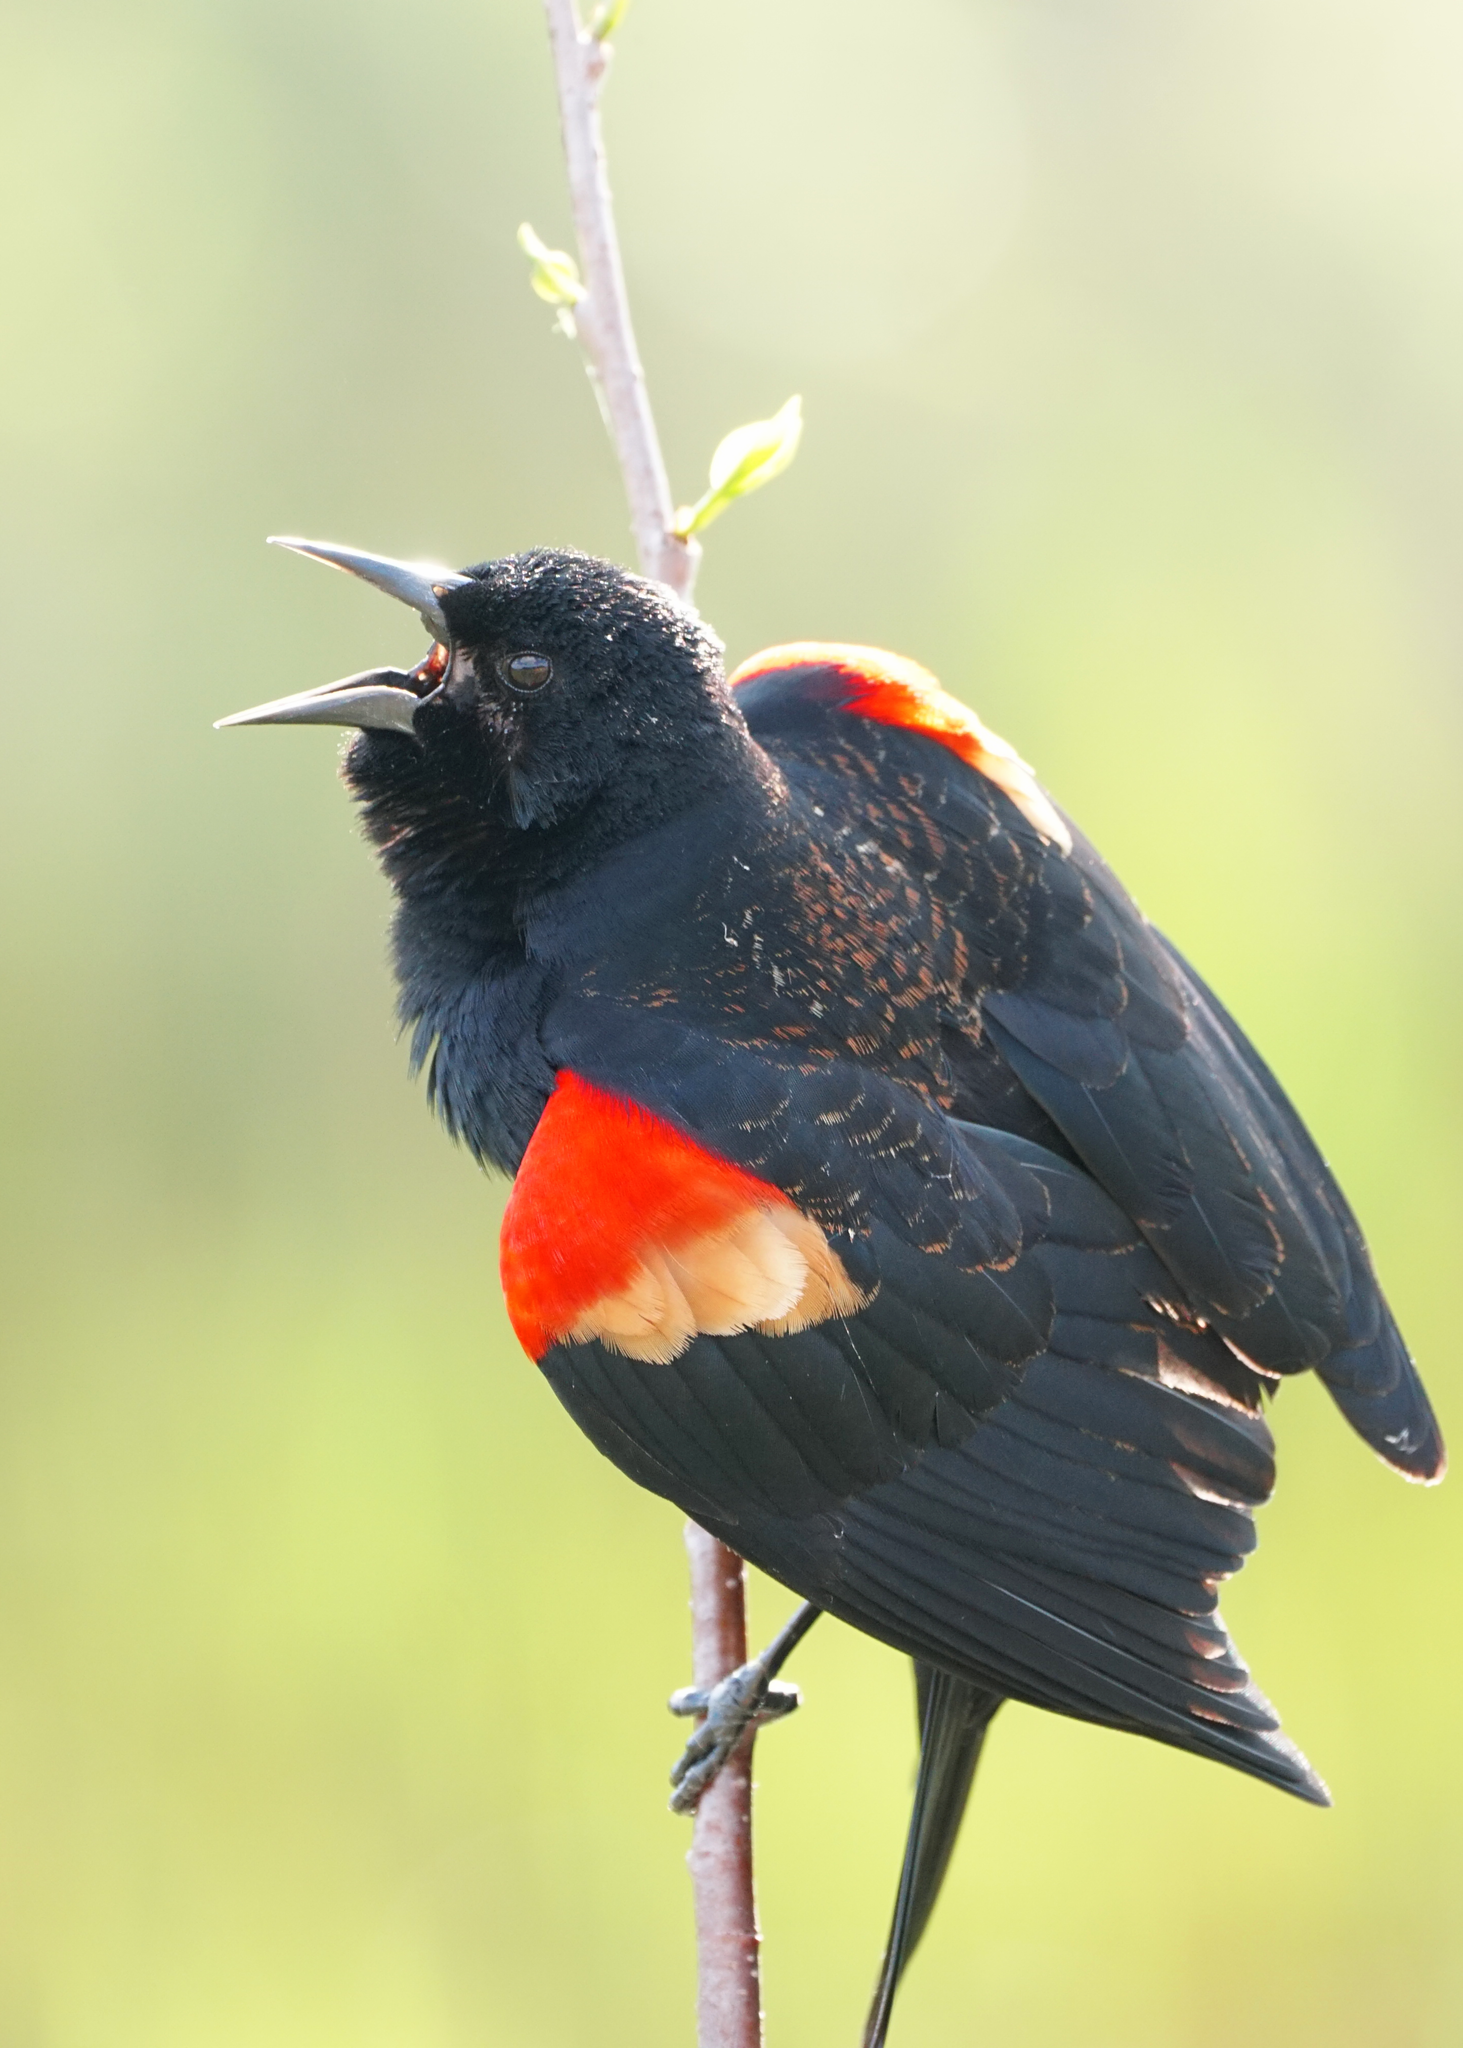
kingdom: Animalia
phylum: Chordata
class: Aves
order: Passeriformes
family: Icteridae
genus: Agelaius
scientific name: Agelaius phoeniceus
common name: Red-winged blackbird
